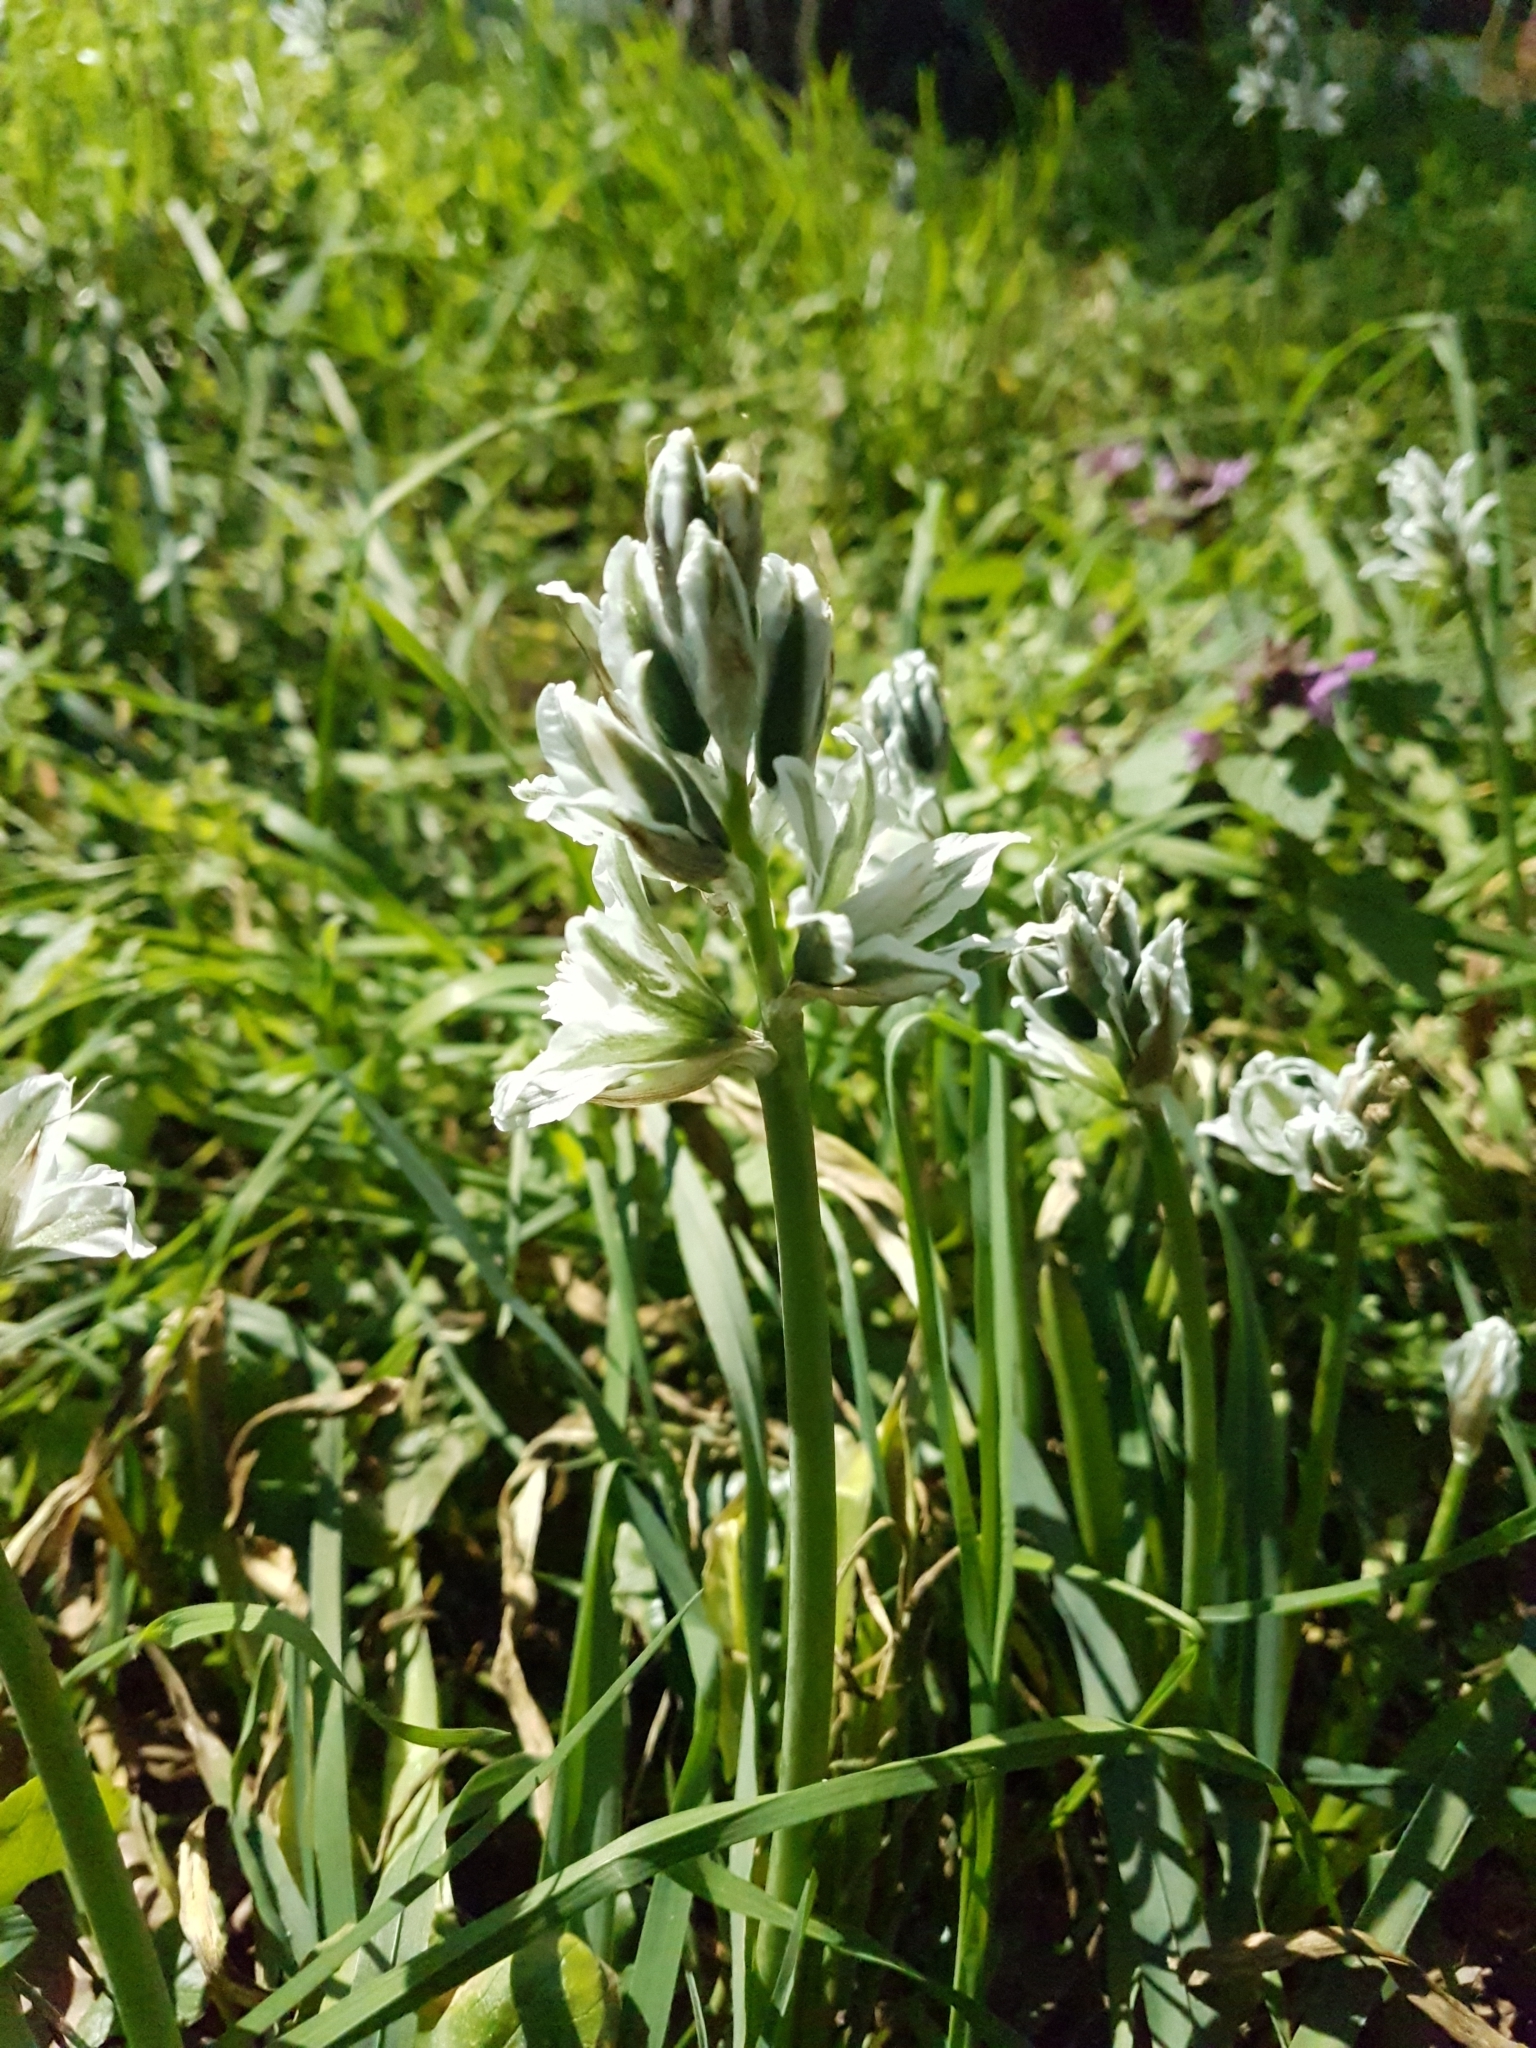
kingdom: Plantae
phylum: Tracheophyta
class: Liliopsida
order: Asparagales
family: Asparagaceae
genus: Ornithogalum
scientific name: Ornithogalum nutans
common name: Drooping star-of-bethlehem
